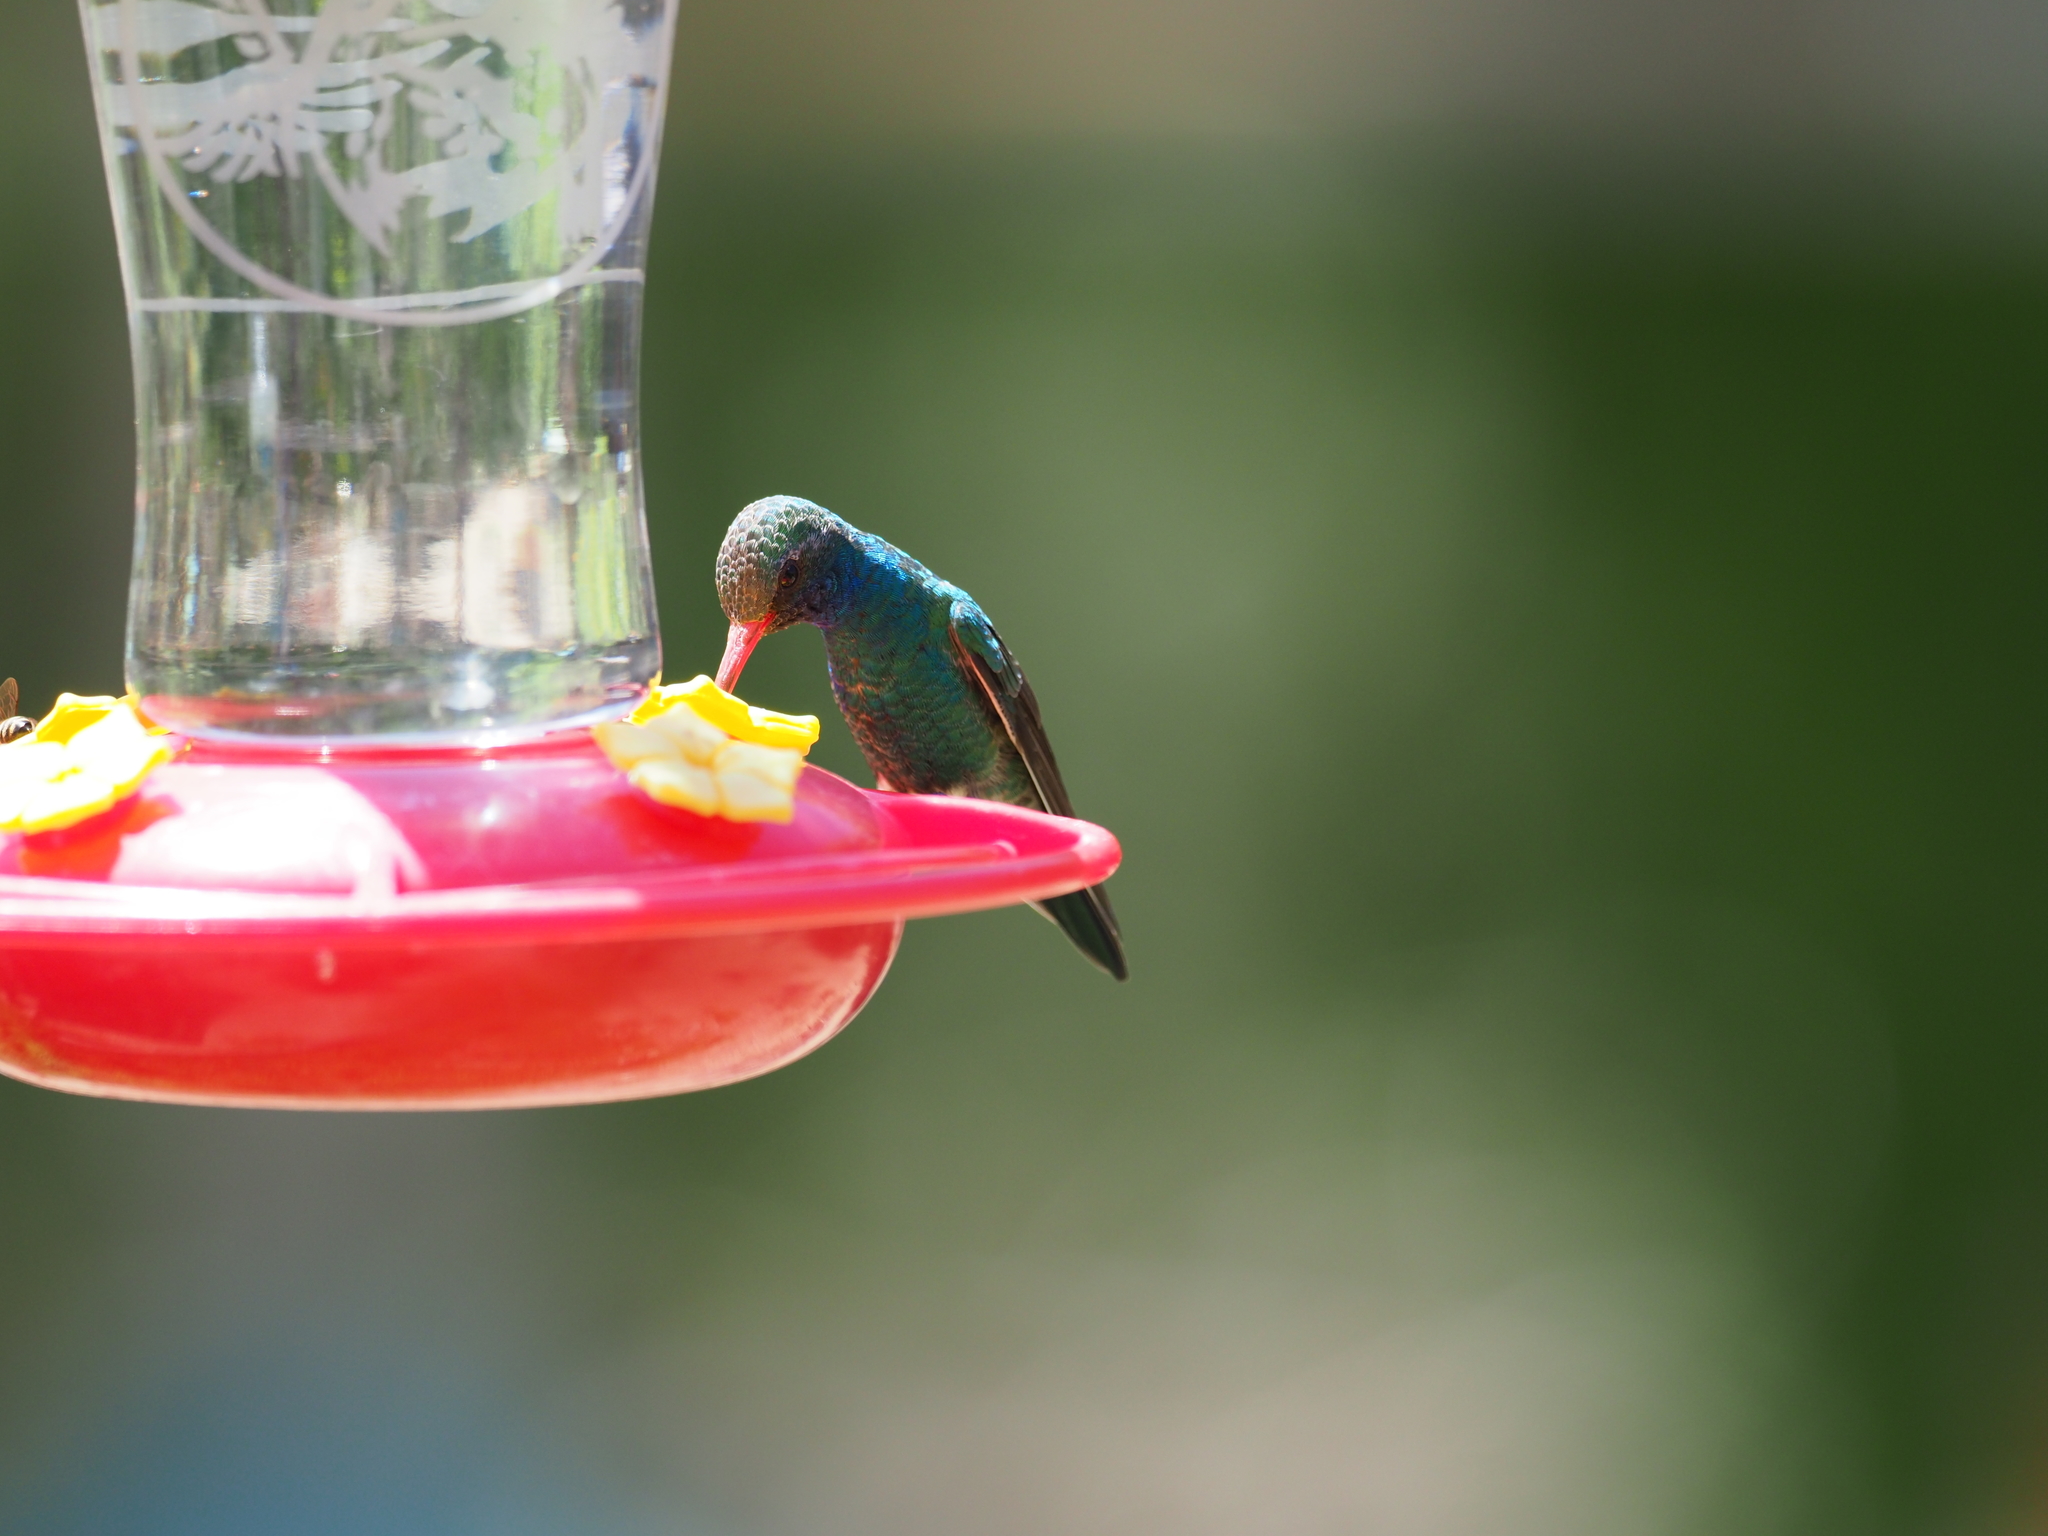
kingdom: Animalia
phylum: Chordata
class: Aves
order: Apodiformes
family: Trochilidae
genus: Cynanthus
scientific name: Cynanthus latirostris
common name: Broad-billed hummingbird
